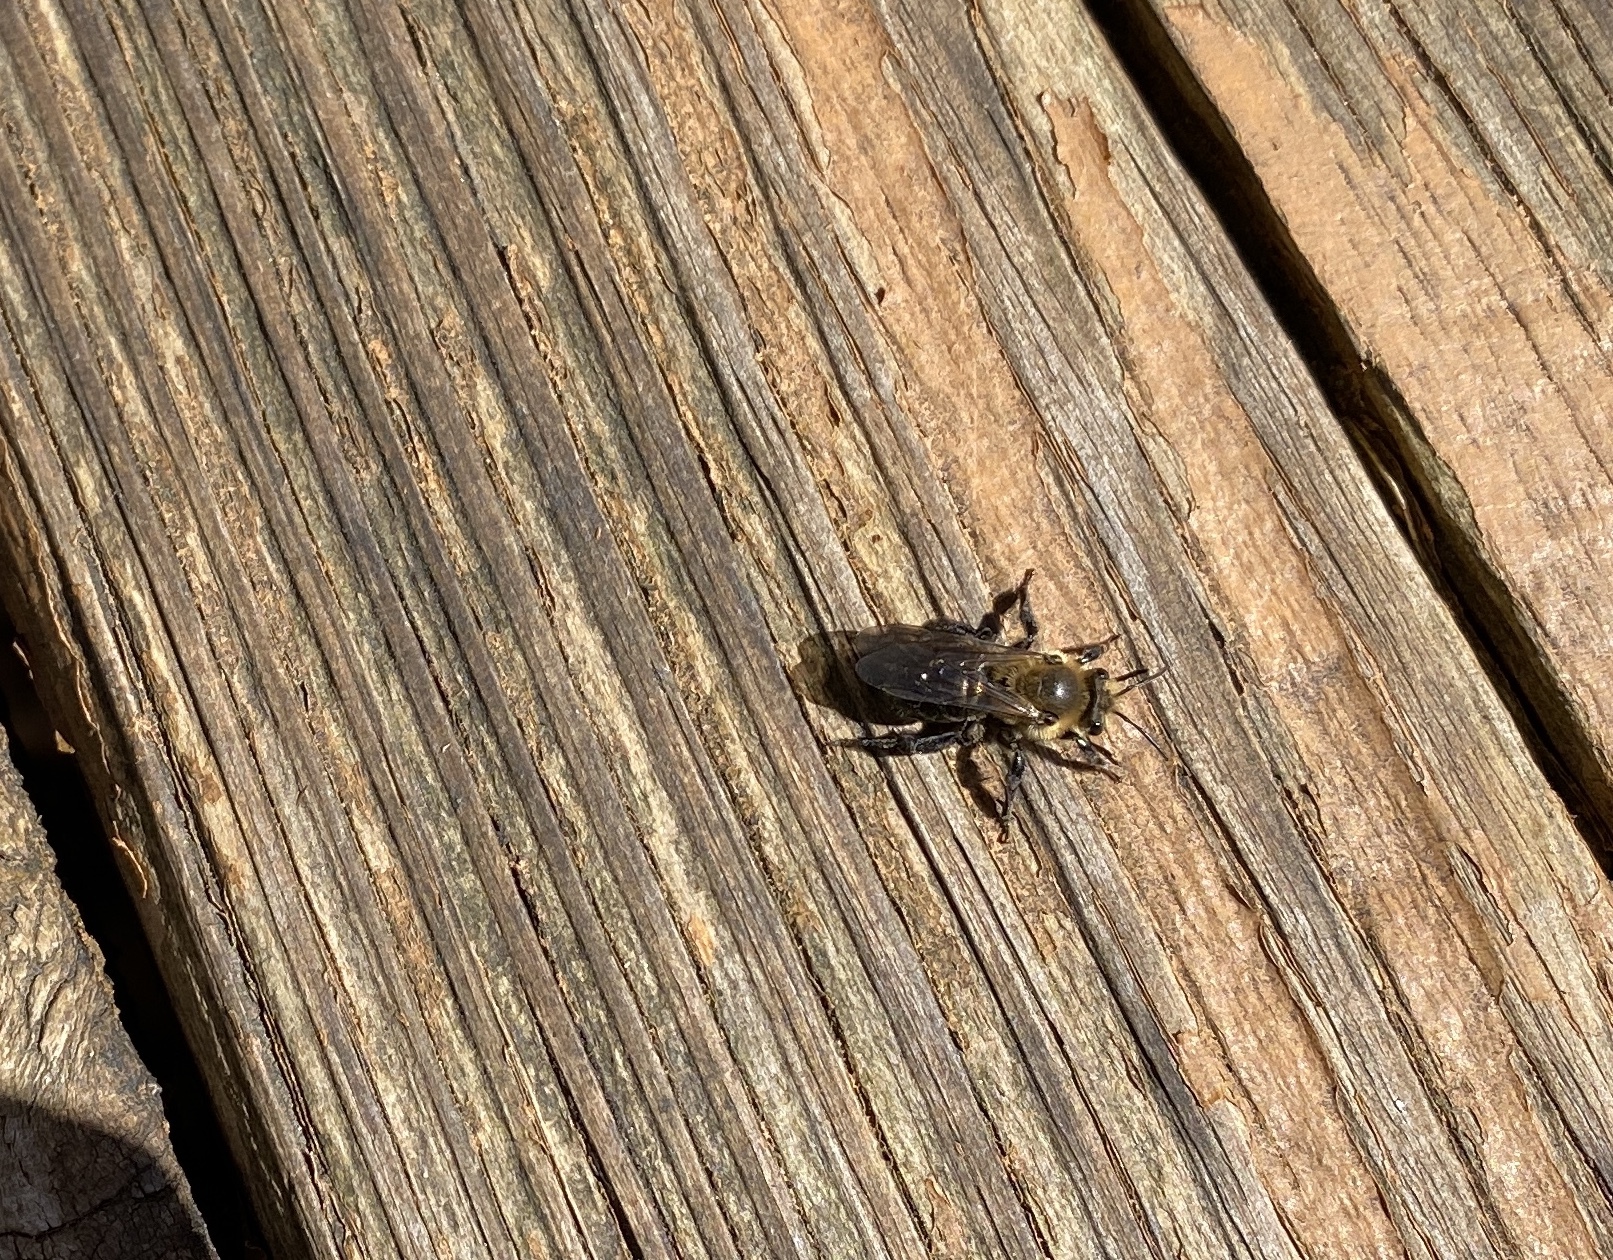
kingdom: Animalia
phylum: Arthropoda
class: Insecta
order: Hymenoptera
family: Andrenidae
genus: Andrena
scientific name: Andrena vicina
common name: Neighborly mining bee
